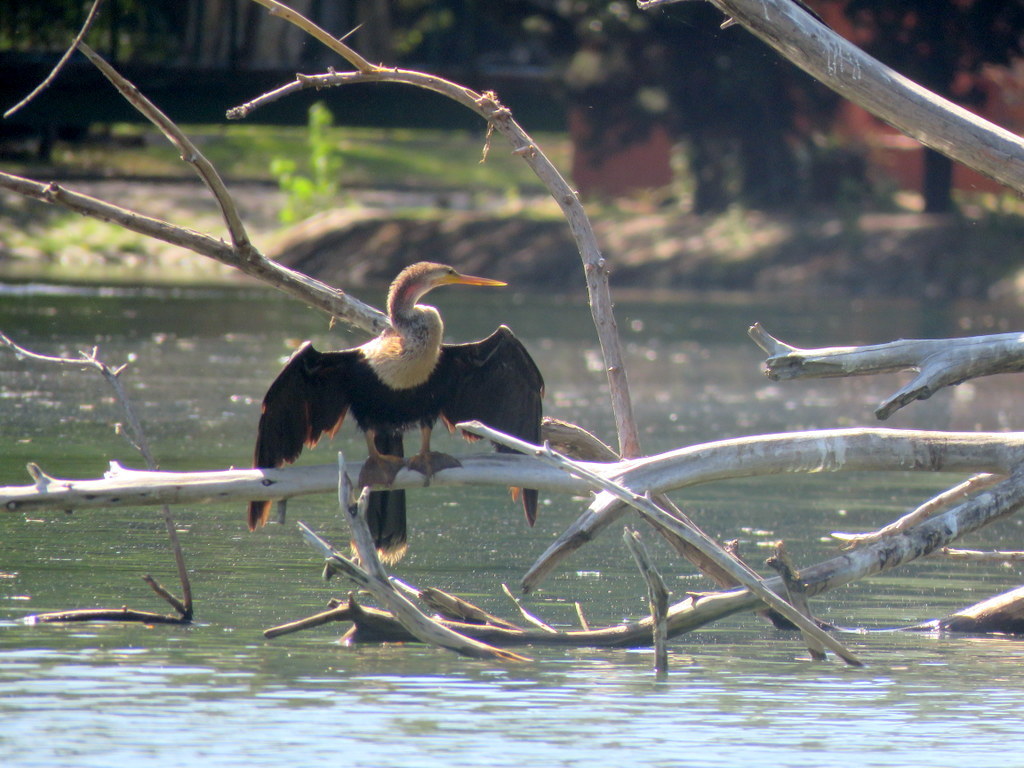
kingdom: Animalia
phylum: Chordata
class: Aves
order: Suliformes
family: Anhingidae
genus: Anhinga
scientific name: Anhinga anhinga
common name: Anhinga
